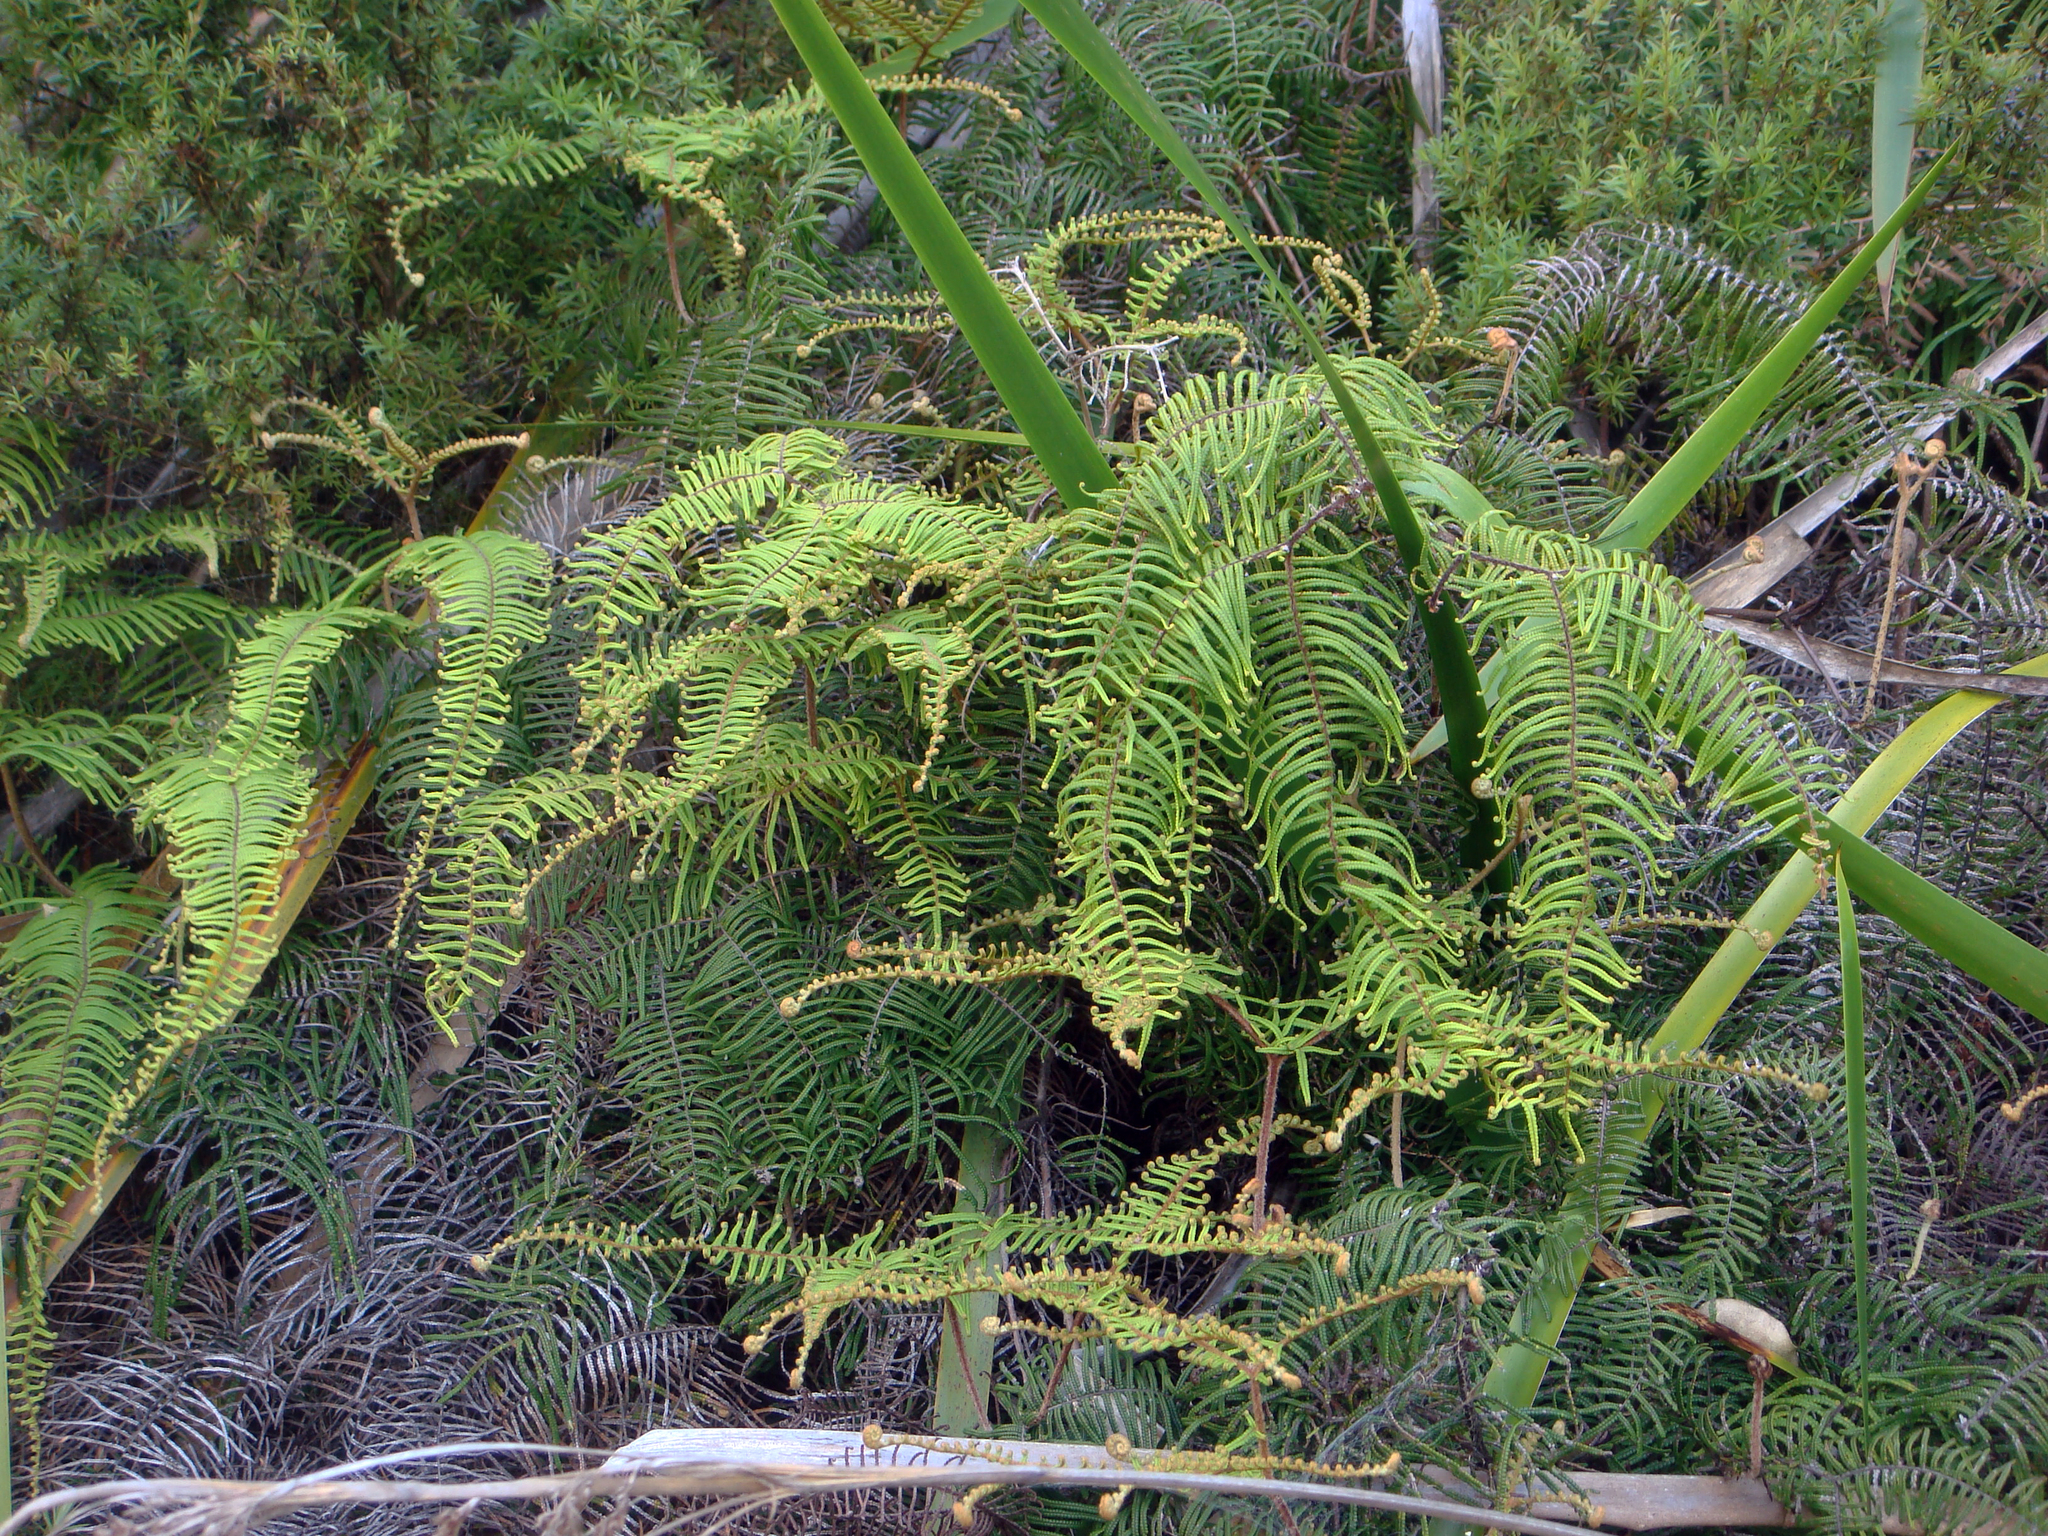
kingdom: Plantae
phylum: Tracheophyta
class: Polypodiopsida
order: Gleicheniales
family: Gleicheniaceae
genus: Gleichenia
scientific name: Gleichenia dicarpa
